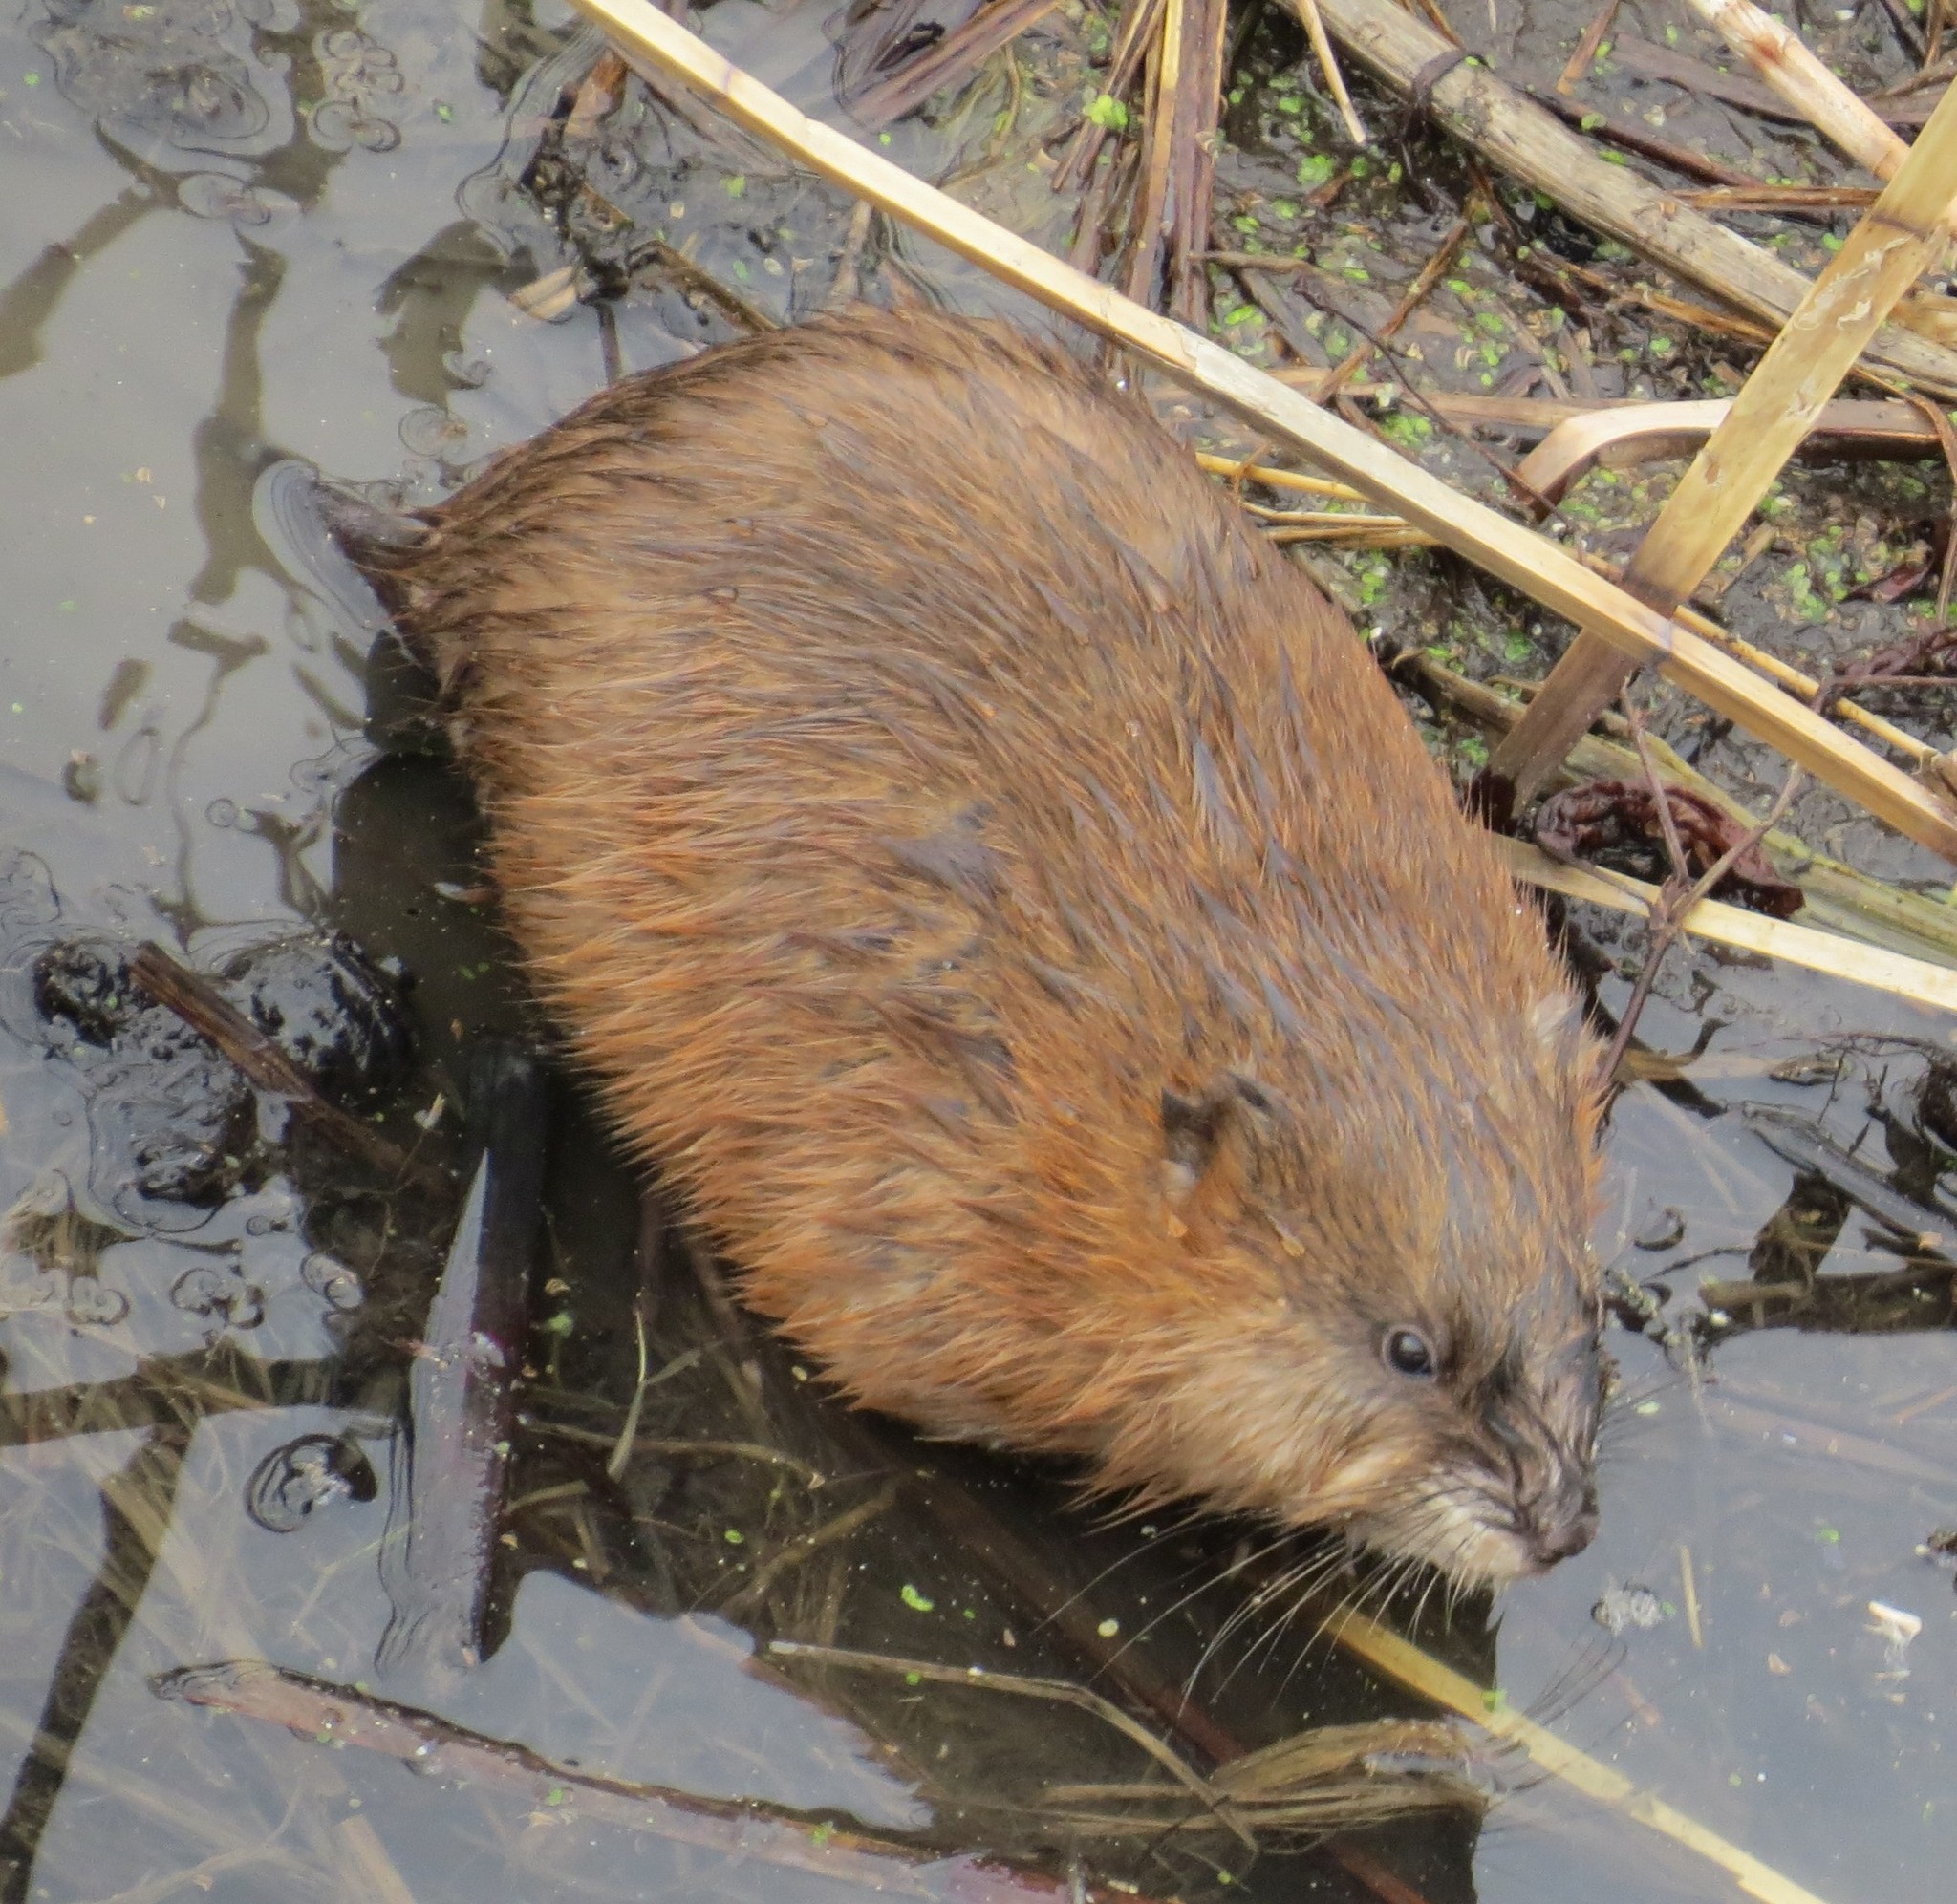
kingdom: Animalia
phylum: Chordata
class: Mammalia
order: Rodentia
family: Cricetidae
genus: Ondatra
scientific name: Ondatra zibethicus
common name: Muskrat
